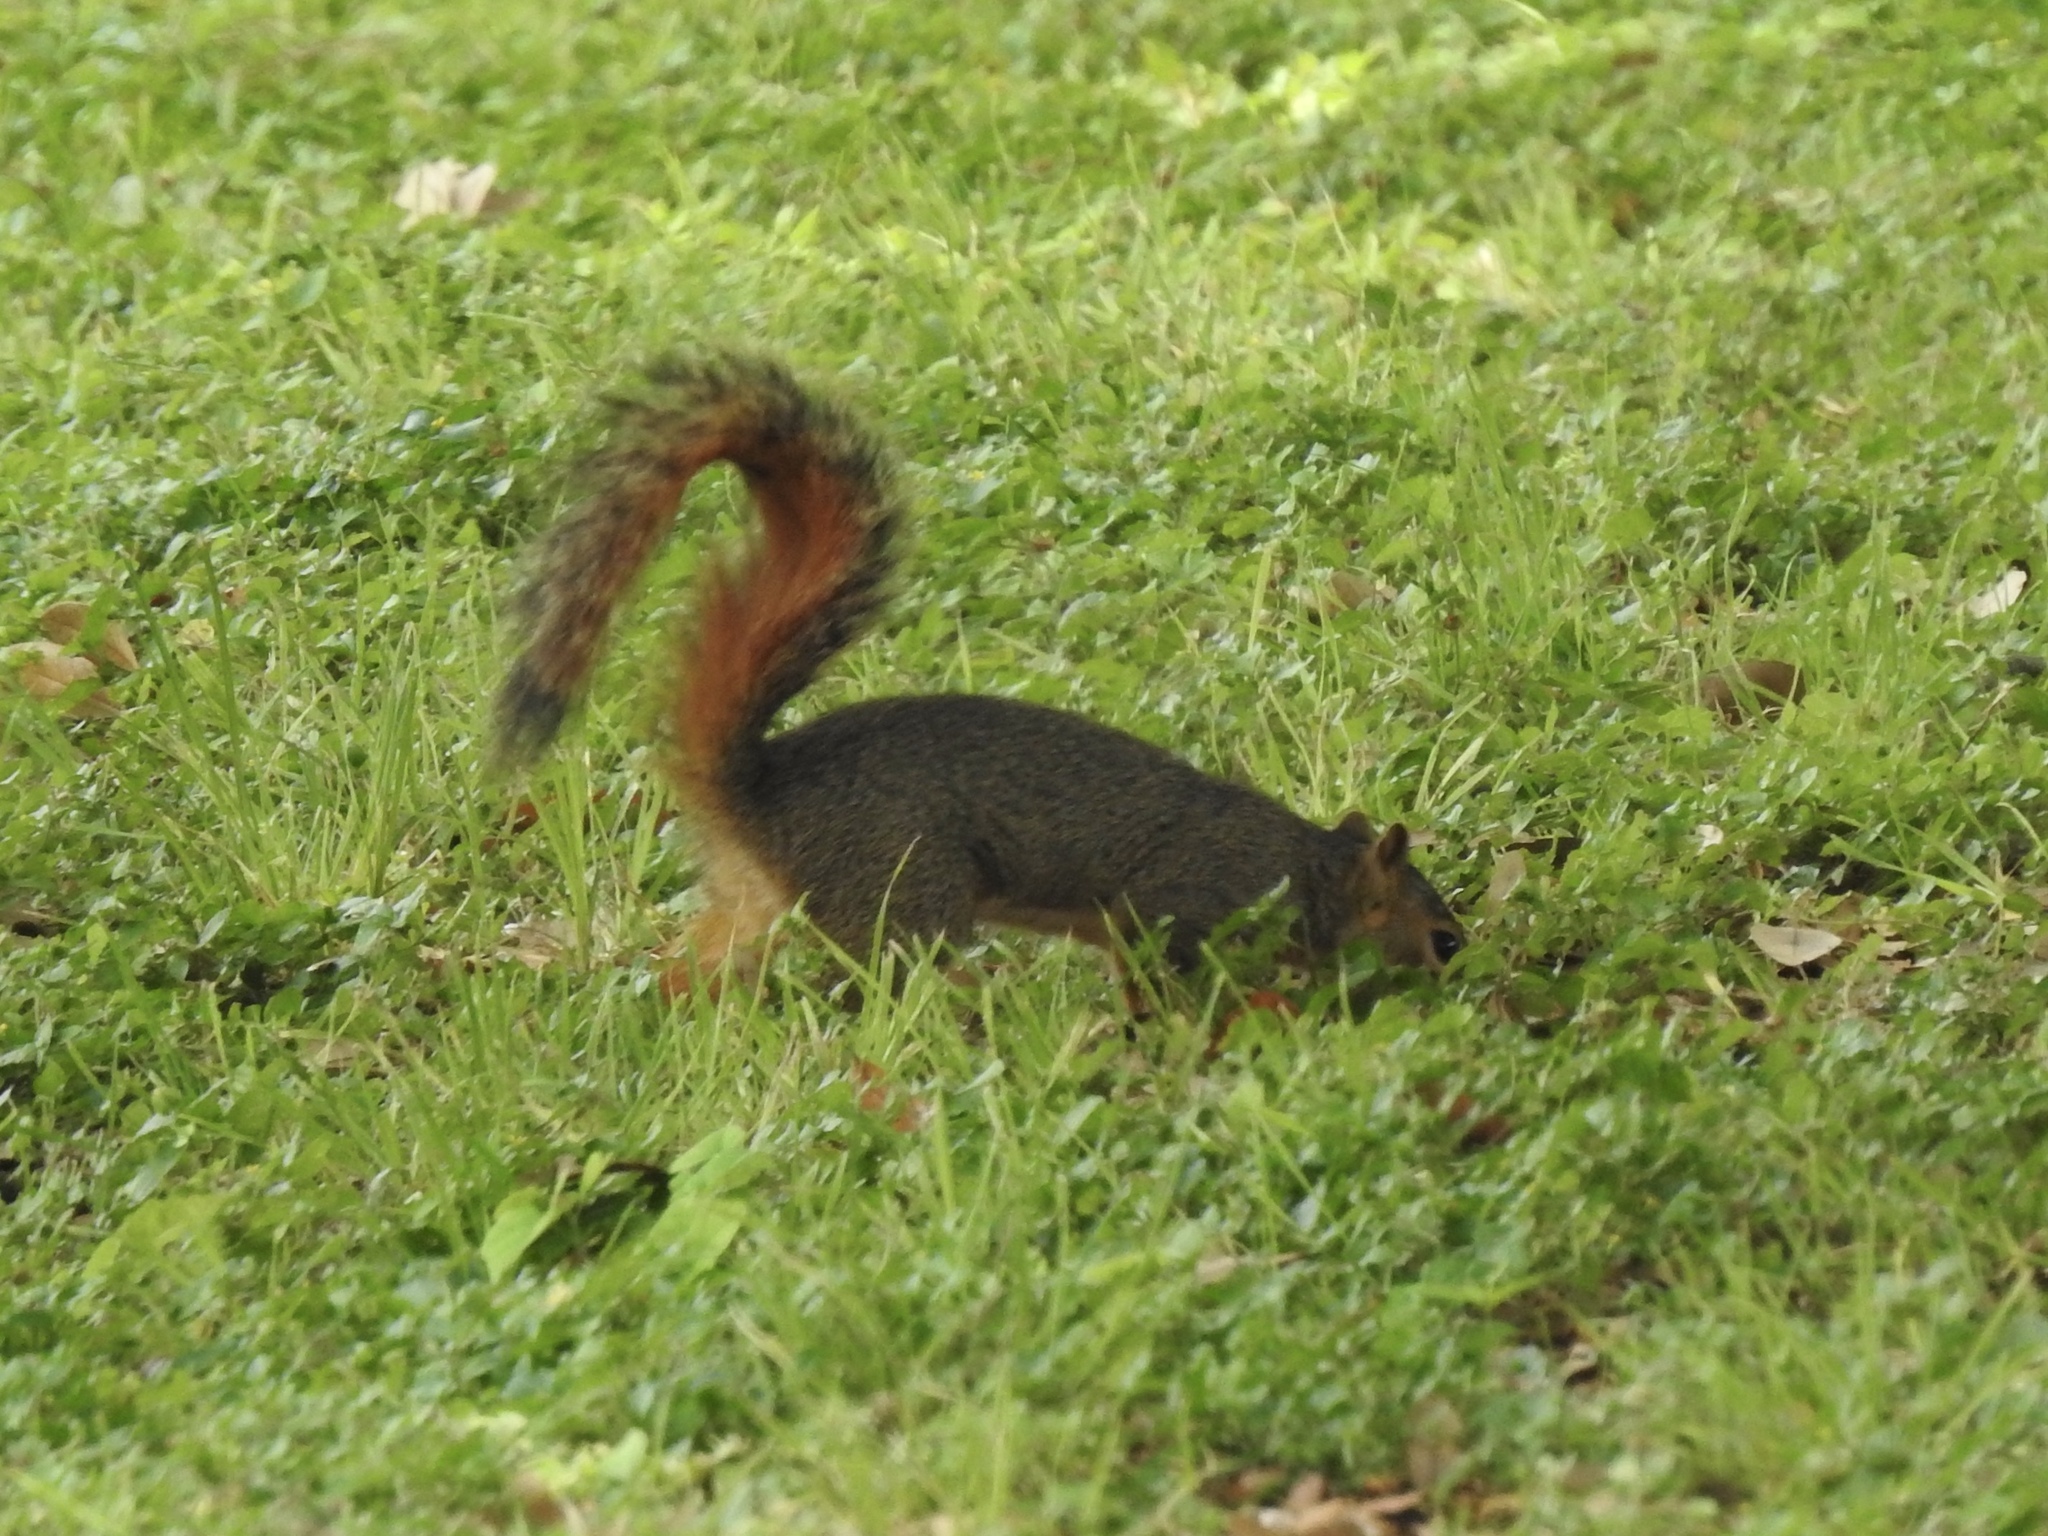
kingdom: Animalia
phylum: Chordata
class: Mammalia
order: Rodentia
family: Sciuridae
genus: Sciurus
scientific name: Sciurus niger
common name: Fox squirrel
